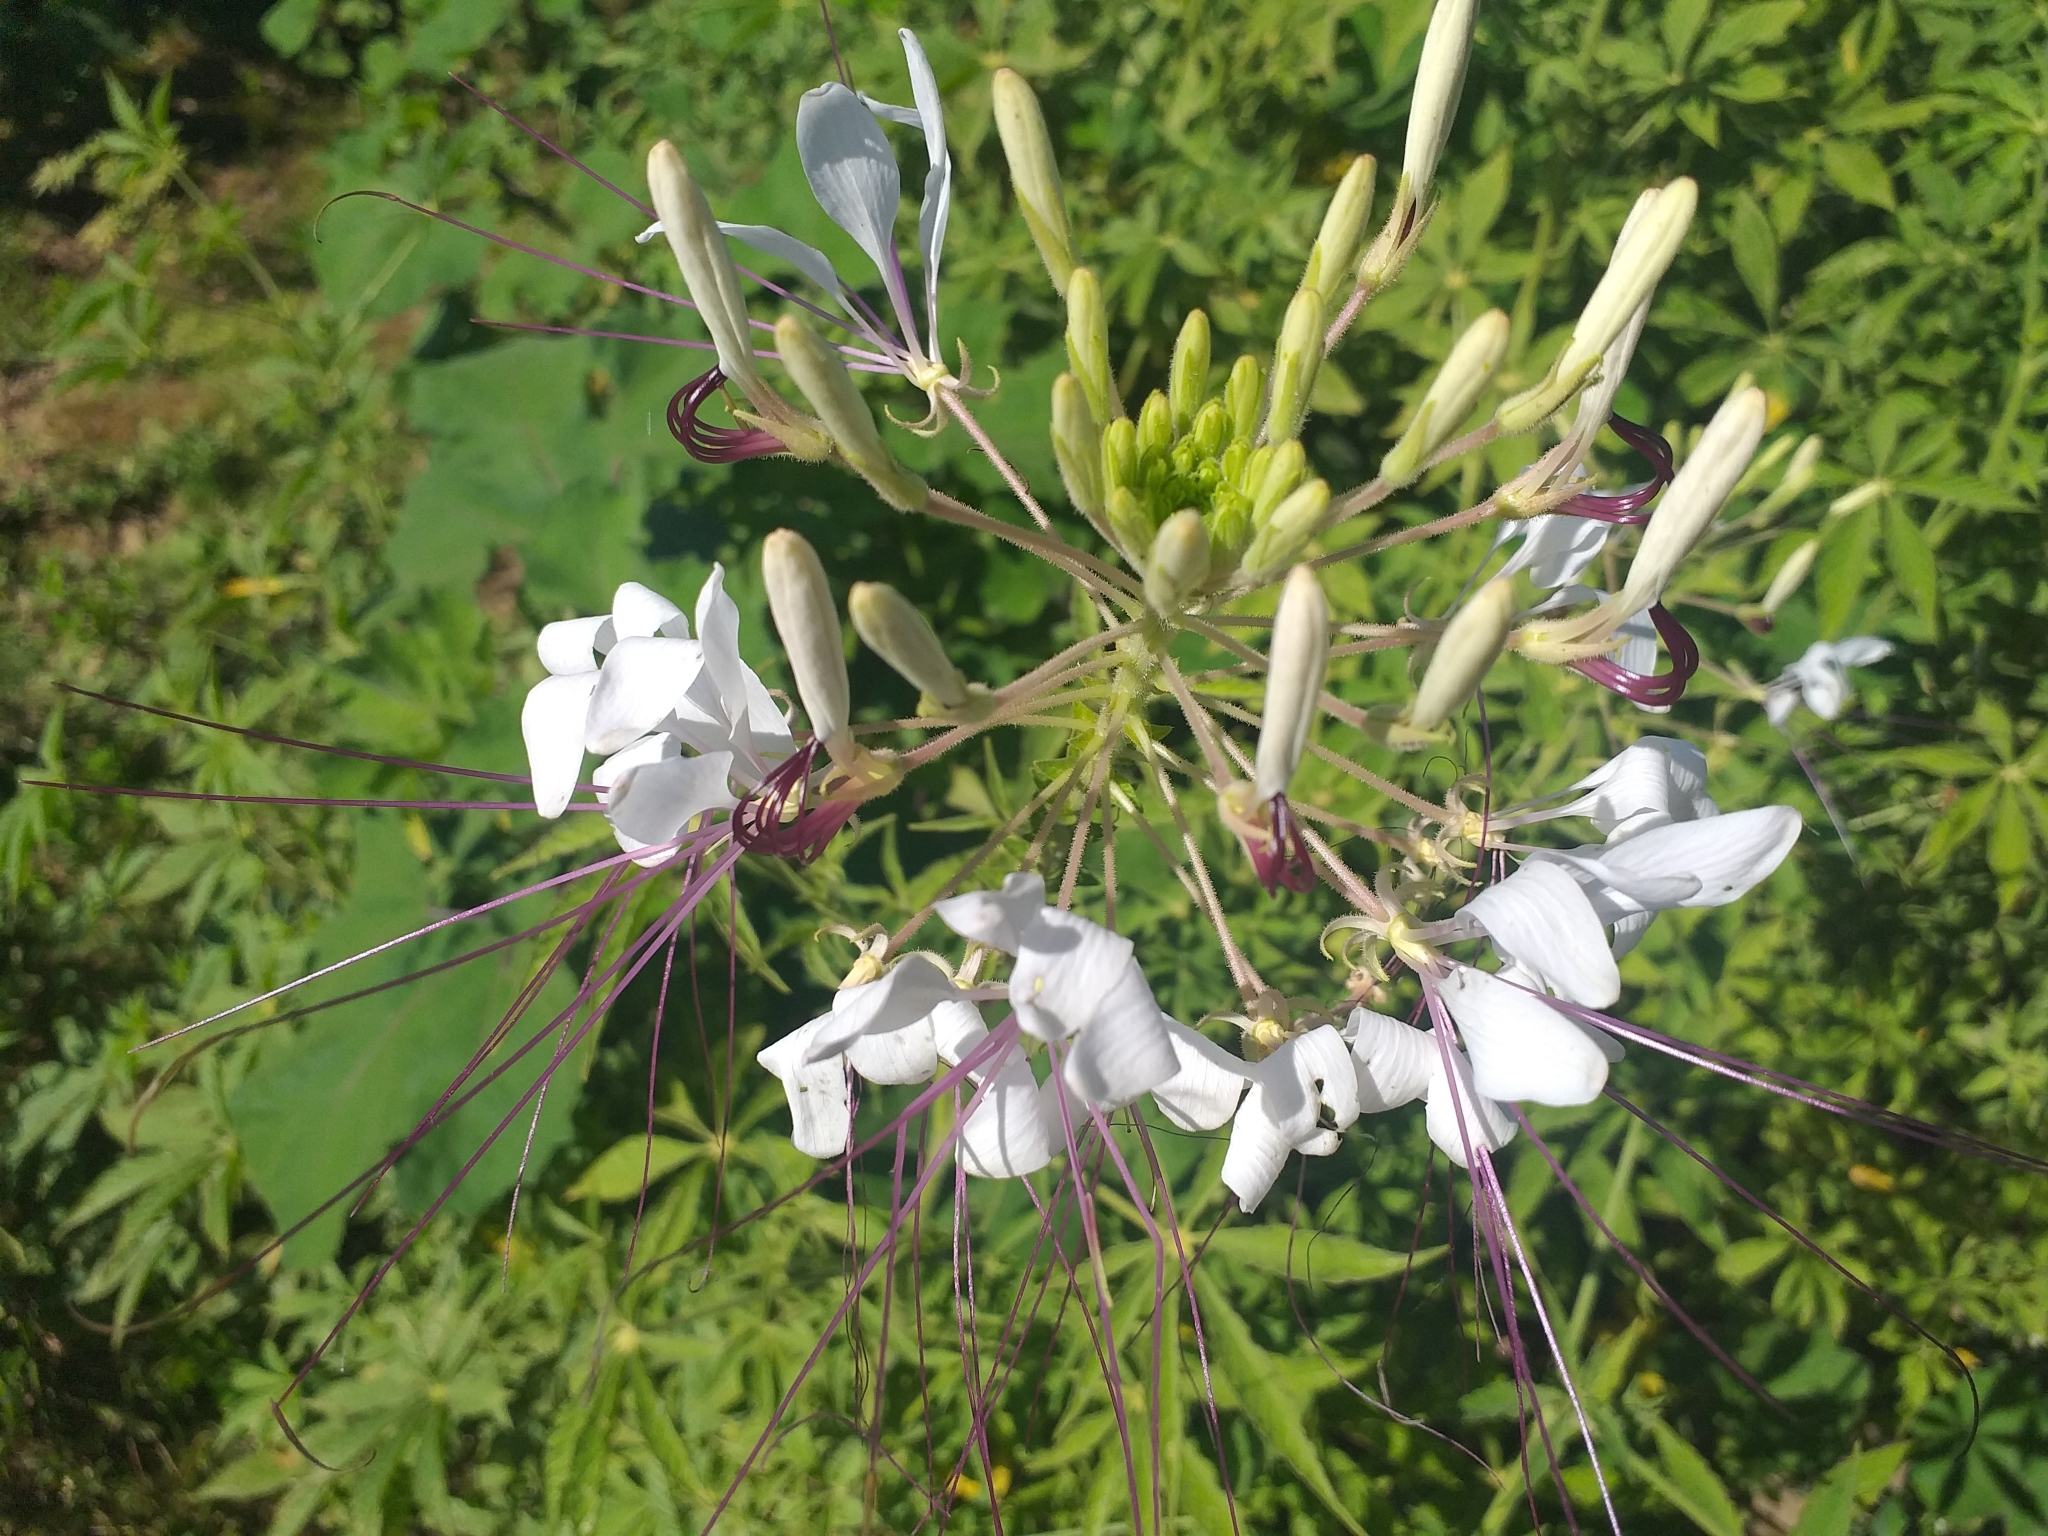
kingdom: Plantae
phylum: Tracheophyta
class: Magnoliopsida
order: Brassicales
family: Cleomaceae
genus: Tarenaya
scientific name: Tarenaya longicarpa
